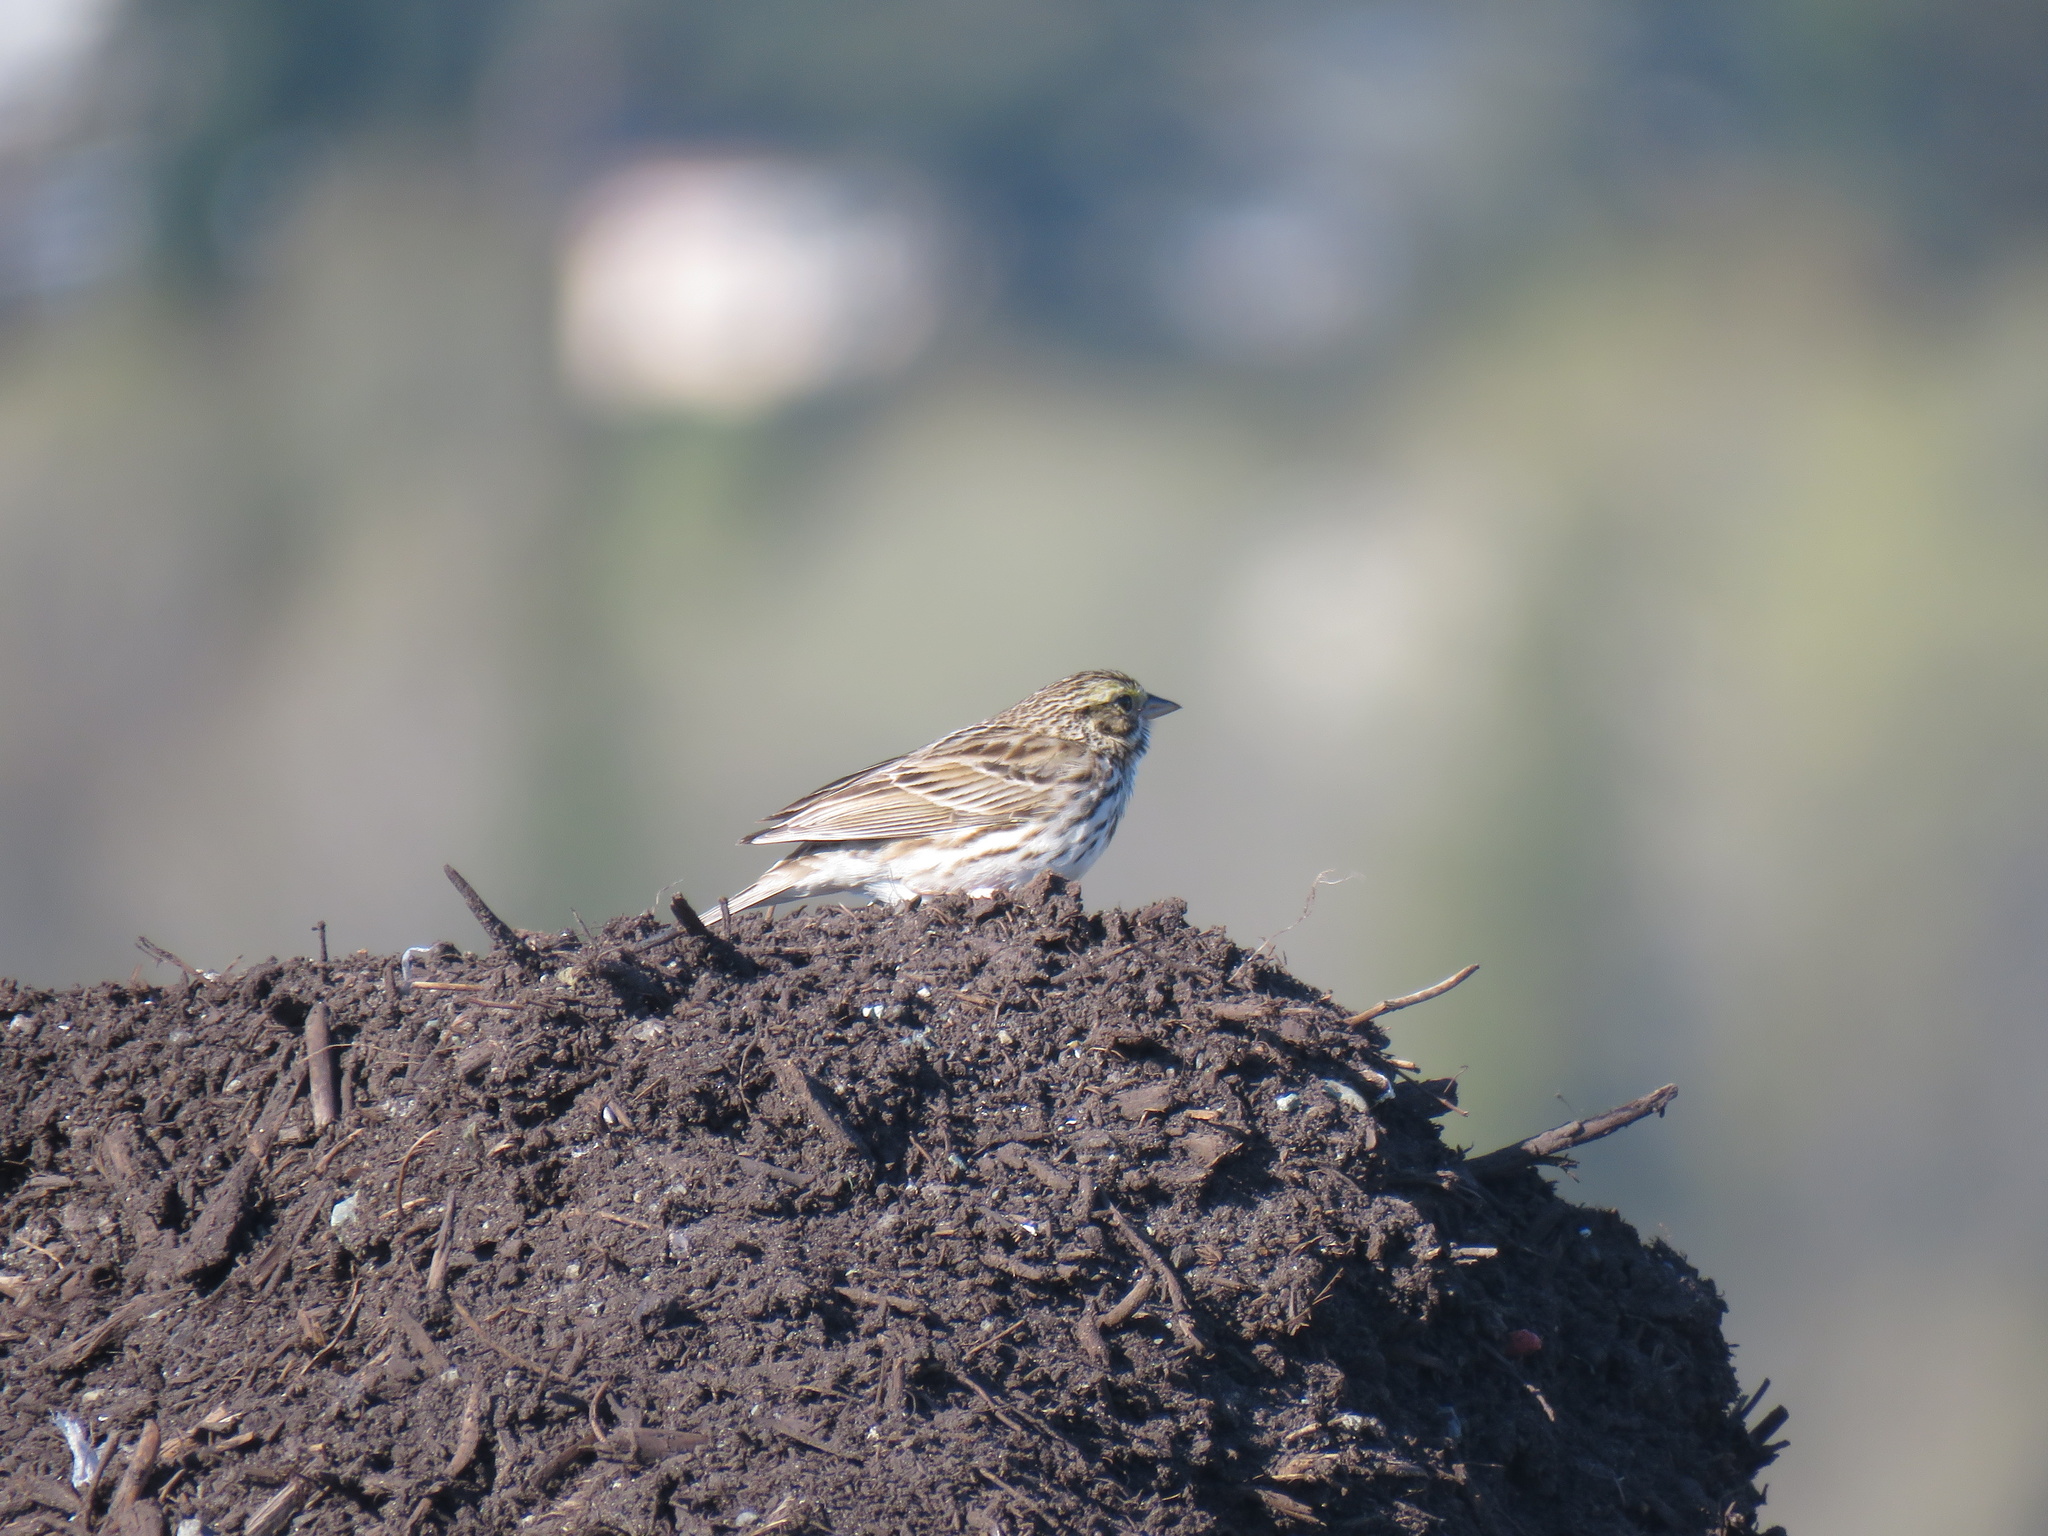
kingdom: Animalia
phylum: Chordata
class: Aves
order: Passeriformes
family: Passerellidae
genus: Passerculus
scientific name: Passerculus sandwichensis
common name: Savannah sparrow
